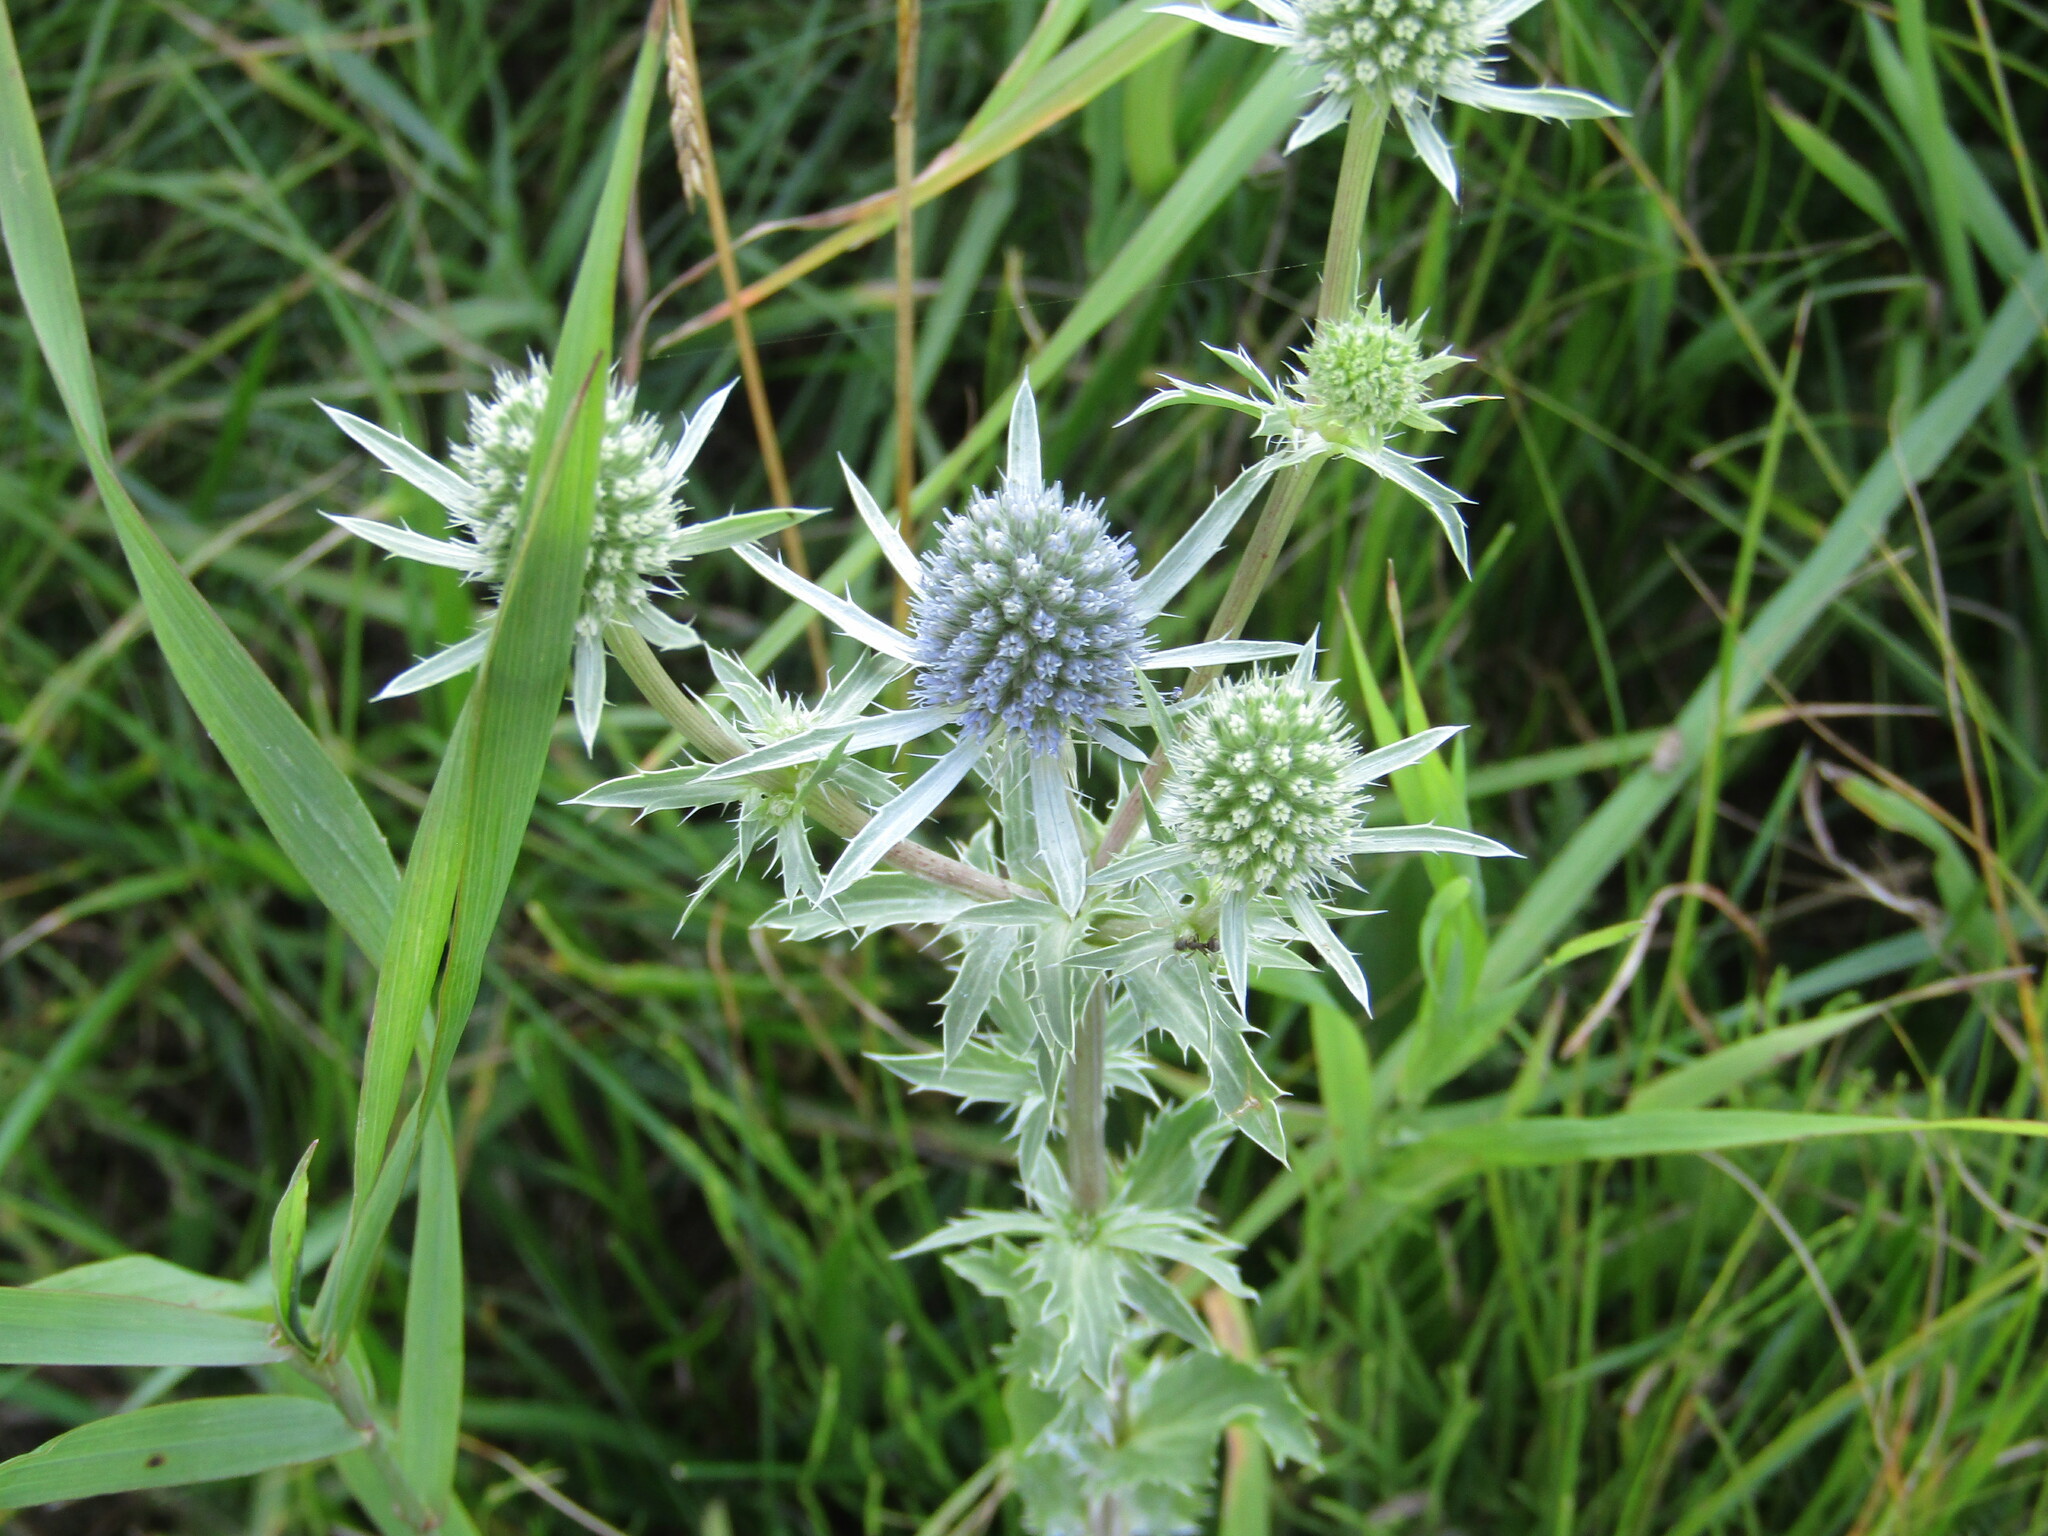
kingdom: Plantae
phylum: Tracheophyta
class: Magnoliopsida
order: Apiales
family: Apiaceae
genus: Eryngium
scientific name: Eryngium planum
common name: Blue eryngo
